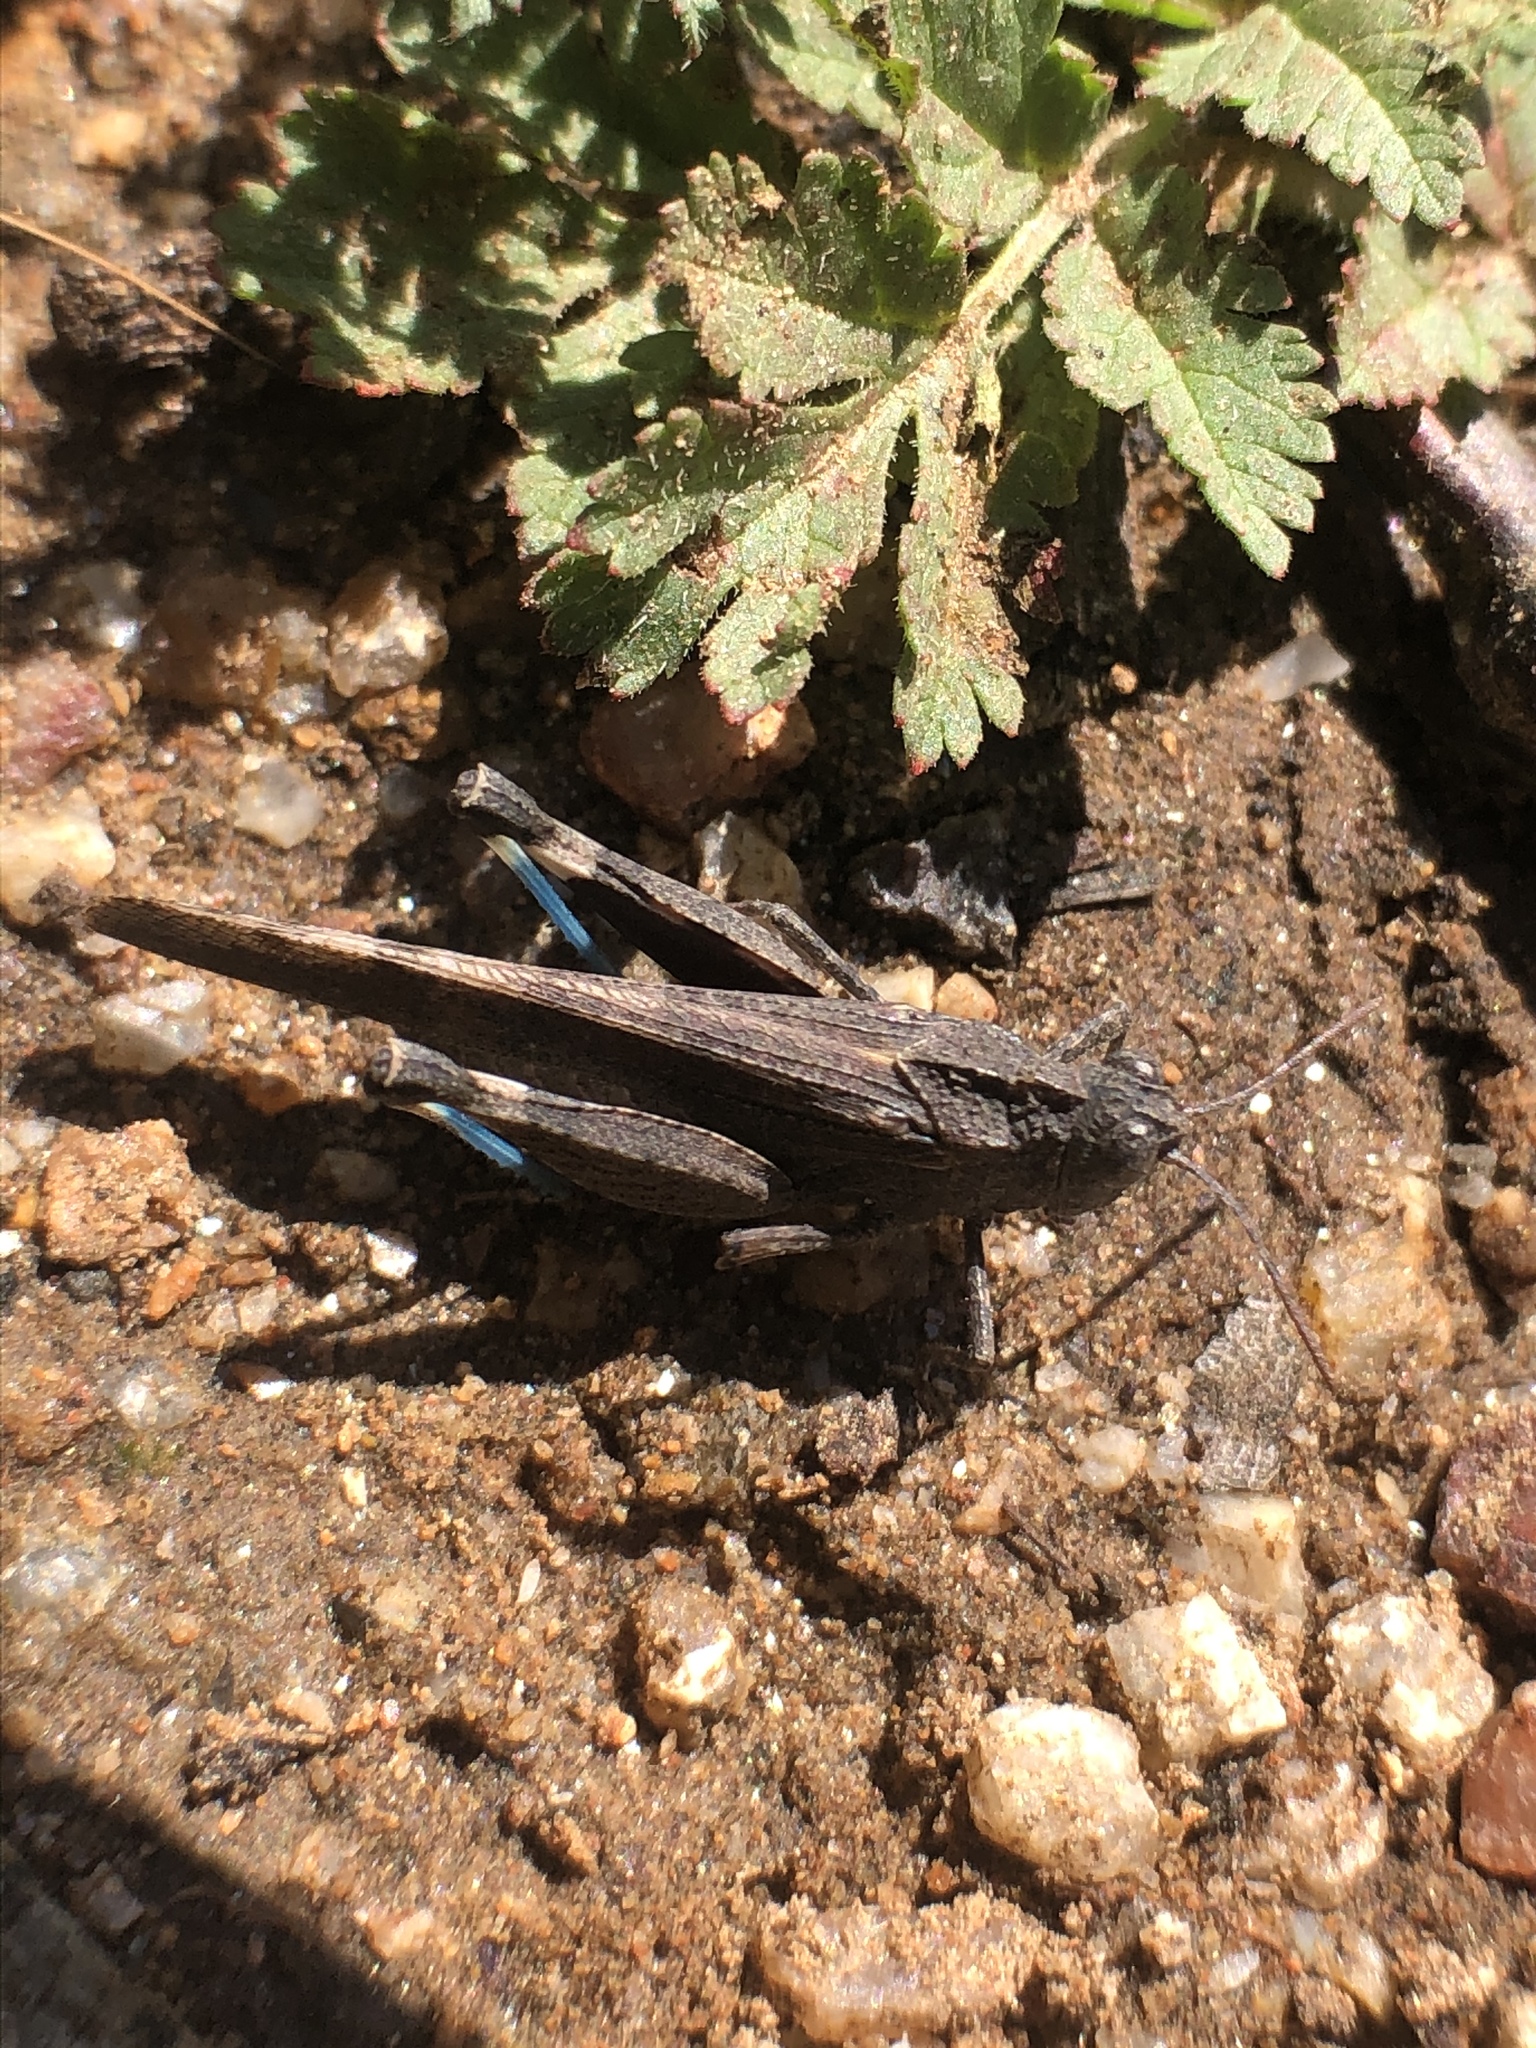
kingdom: Animalia
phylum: Arthropoda
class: Insecta
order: Orthoptera
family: Acrididae
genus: Lactista
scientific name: Lactista gibbosus
